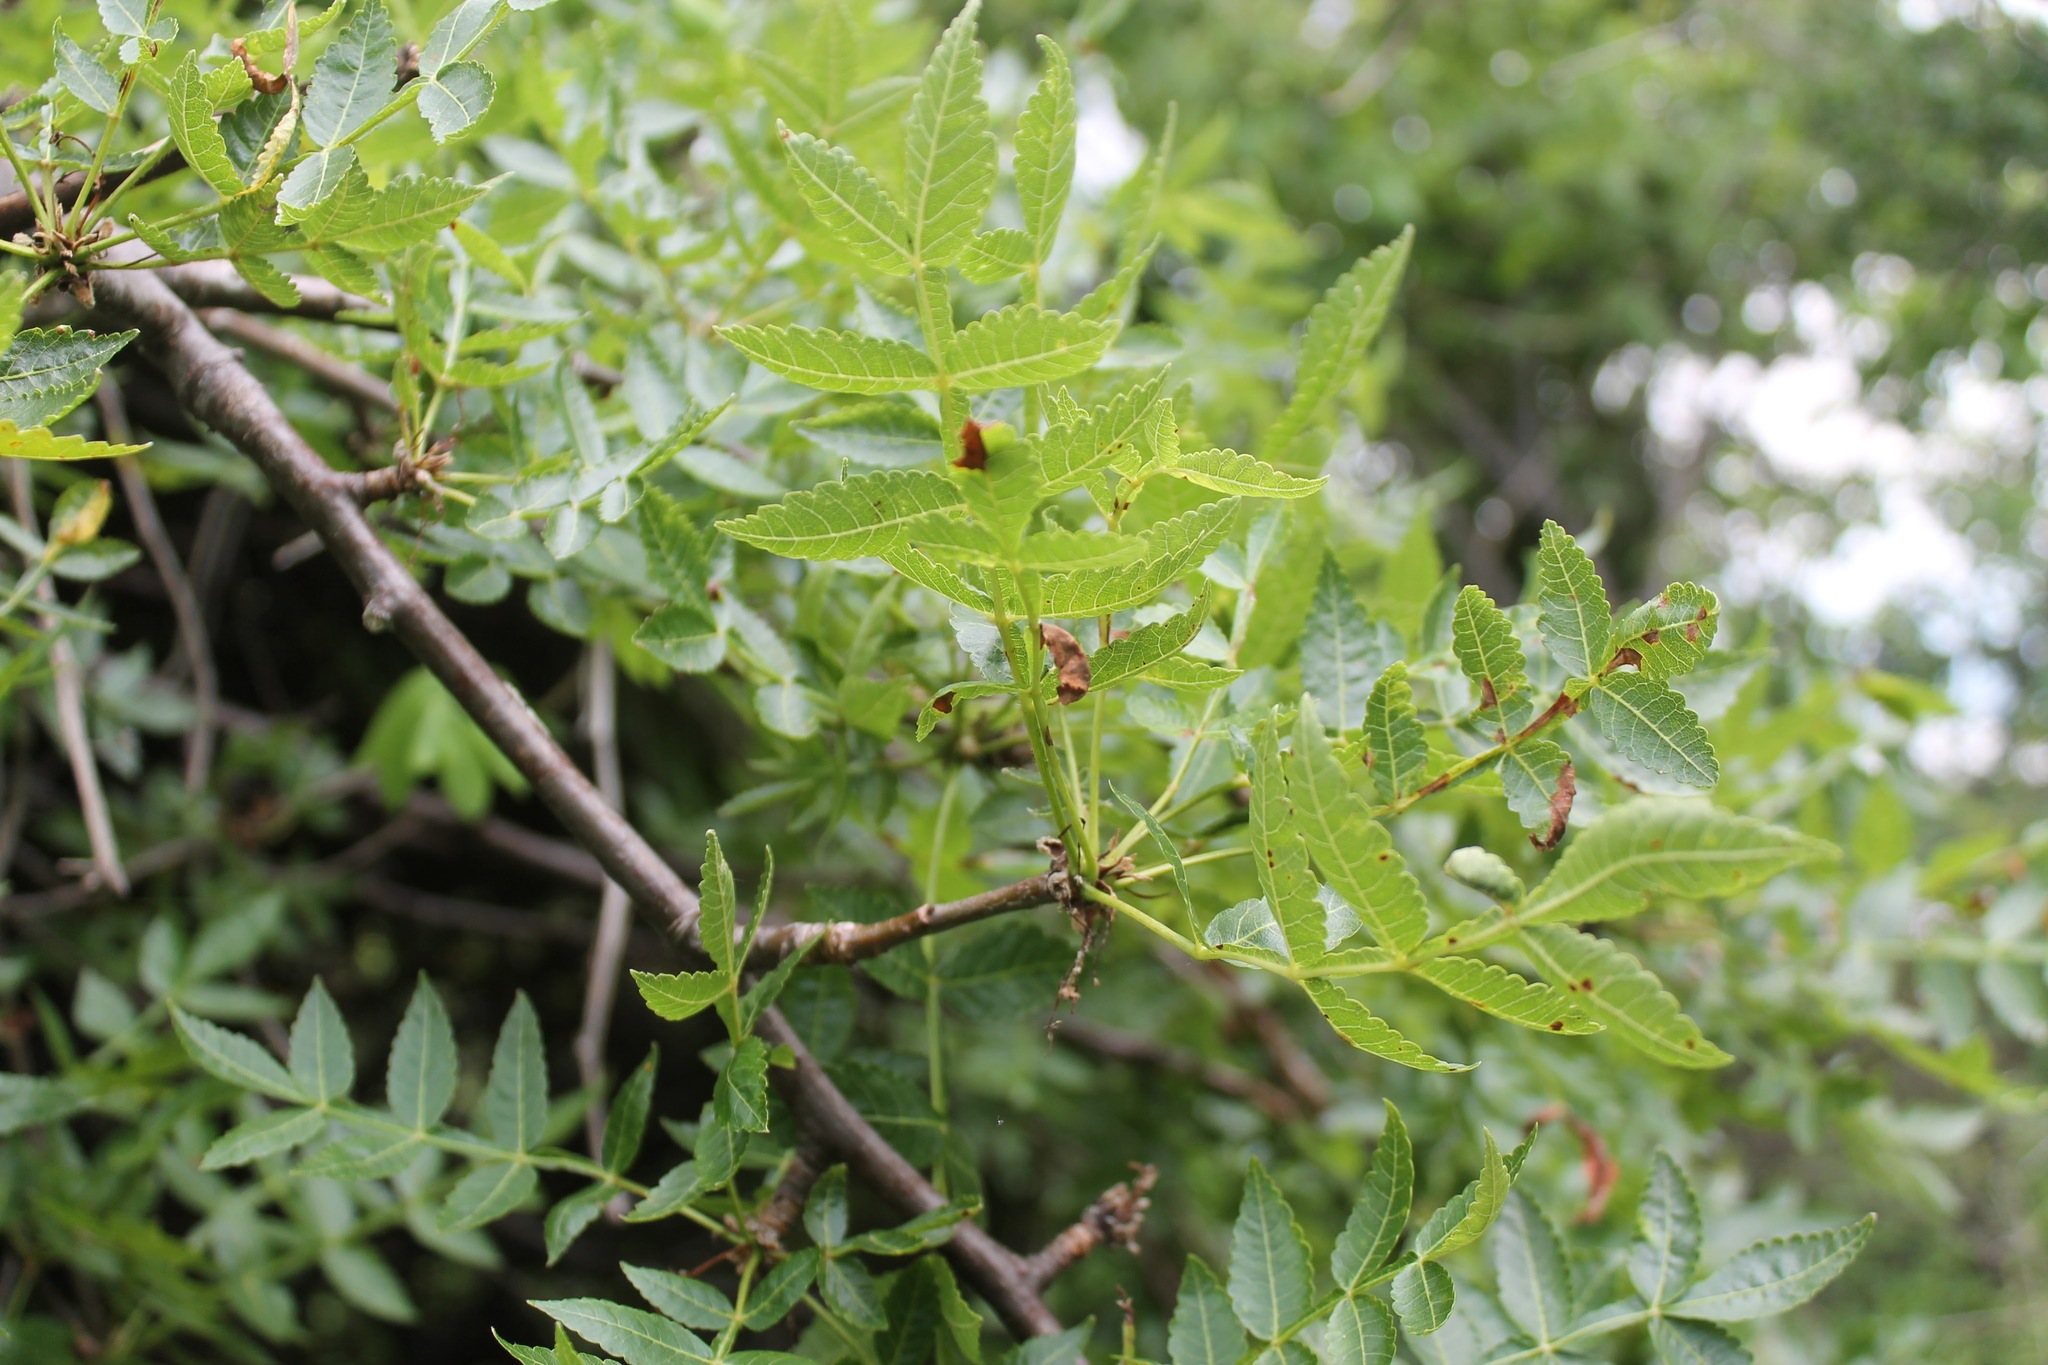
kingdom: Plantae
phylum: Tracheophyta
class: Magnoliopsida
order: Sapindales
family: Burseraceae
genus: Bursera
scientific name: Bursera penicillata
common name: Indian-lavender
